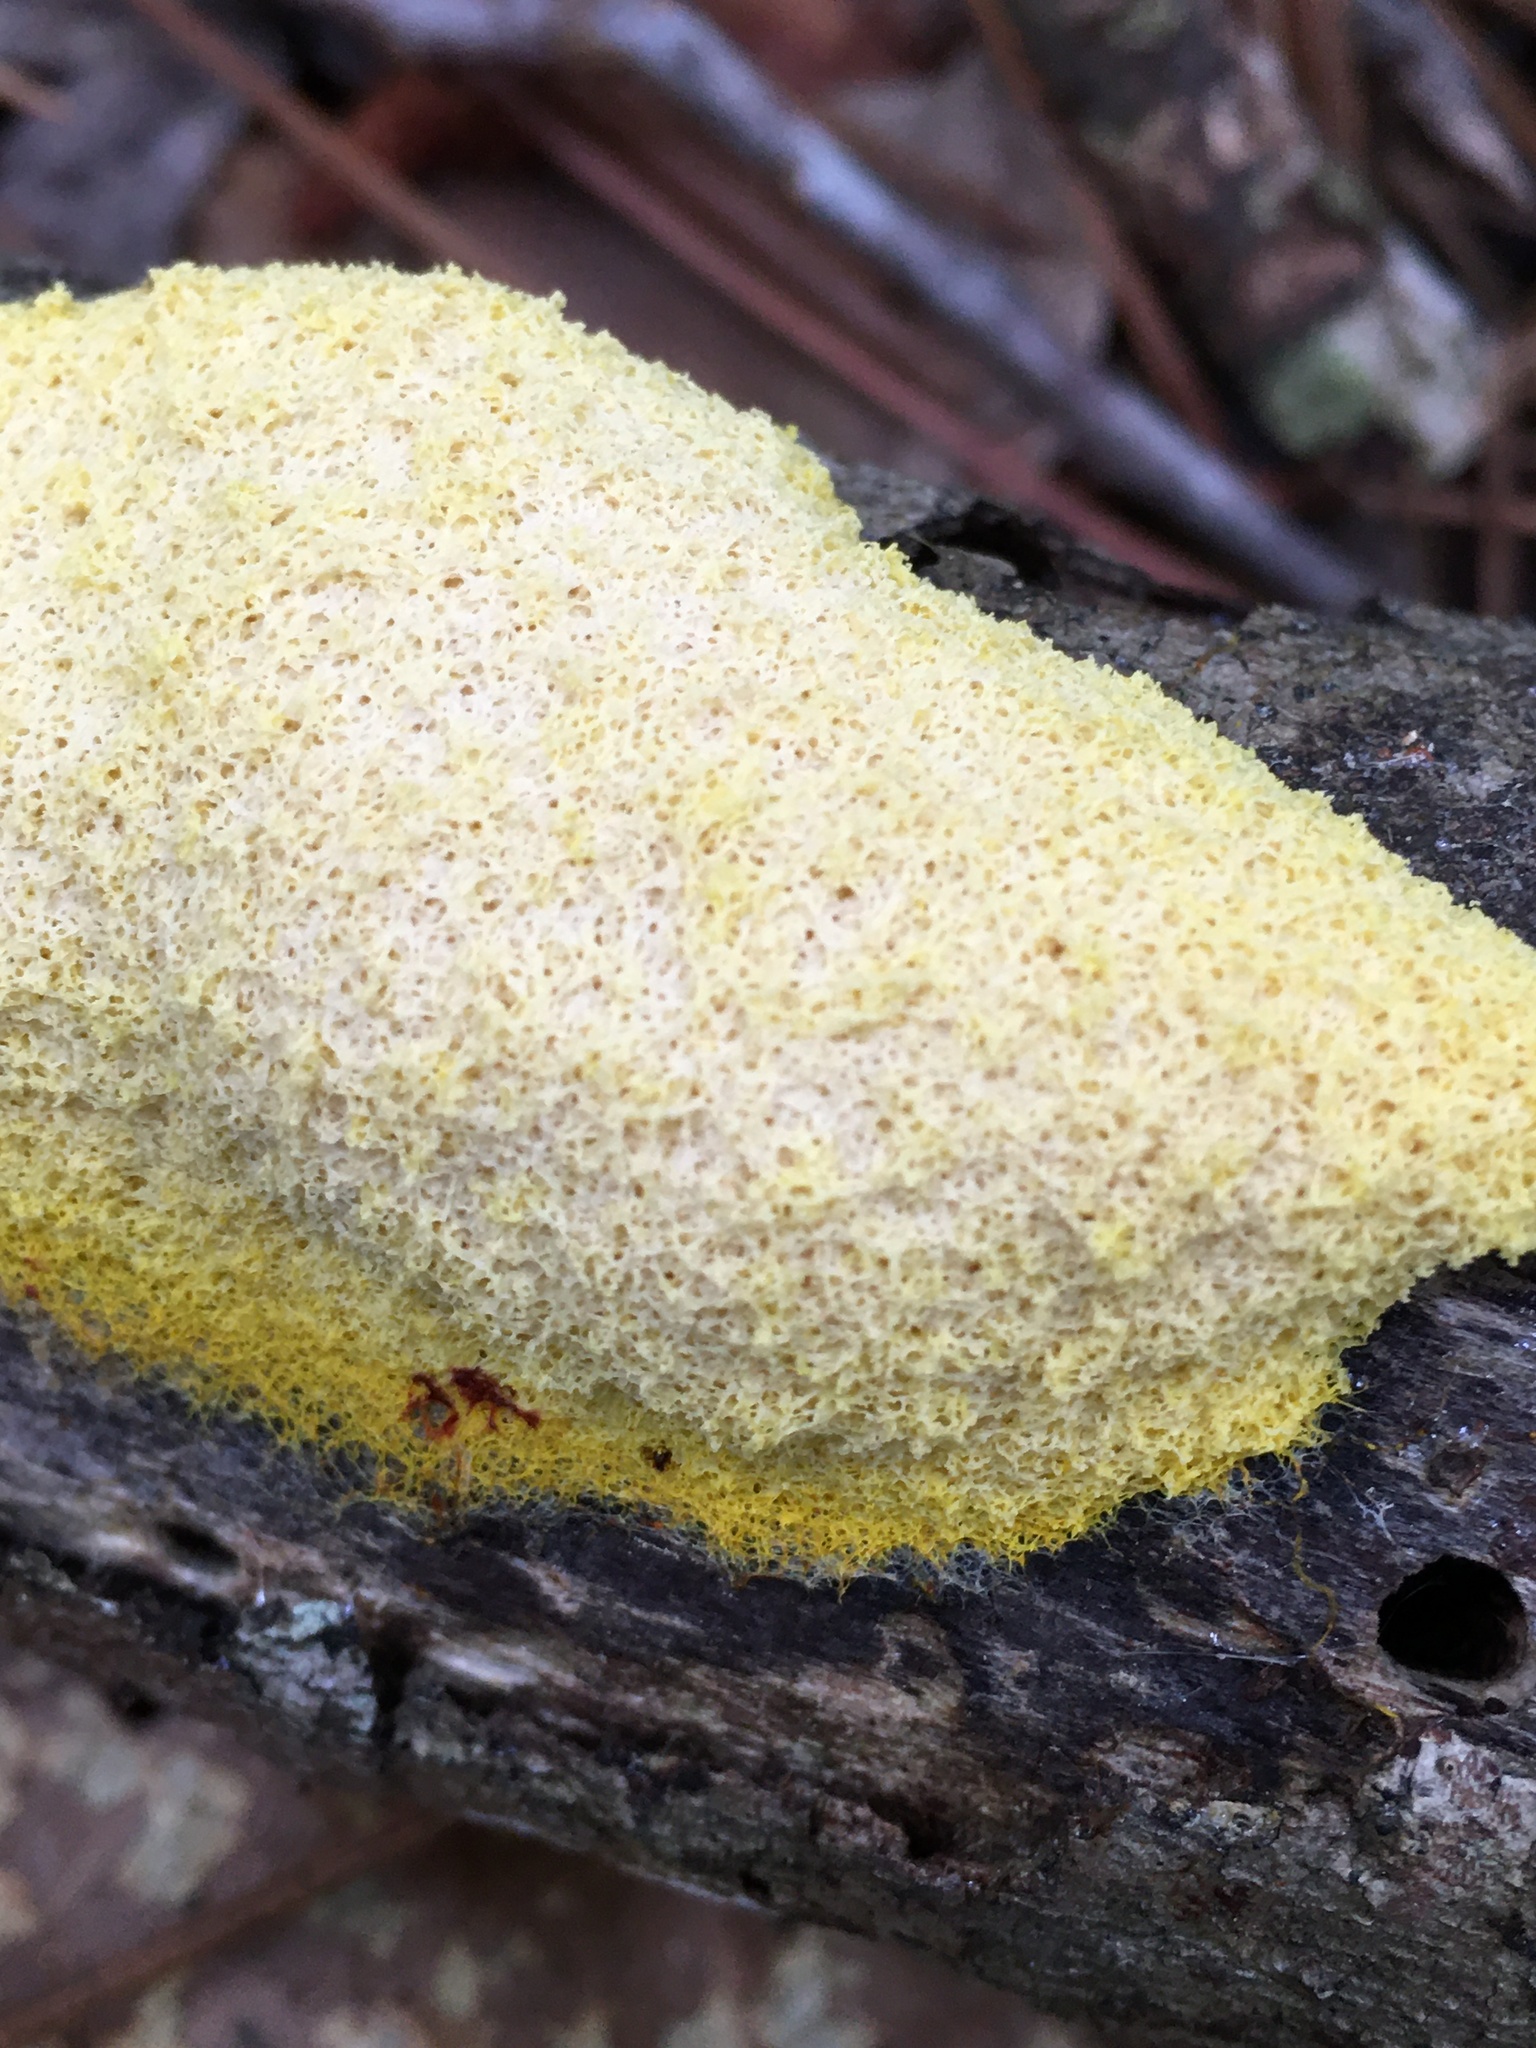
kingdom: Protozoa
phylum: Mycetozoa
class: Myxomycetes
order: Physarales
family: Physaraceae
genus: Fuligo
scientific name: Fuligo septica
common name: Dog vomit slime mold
